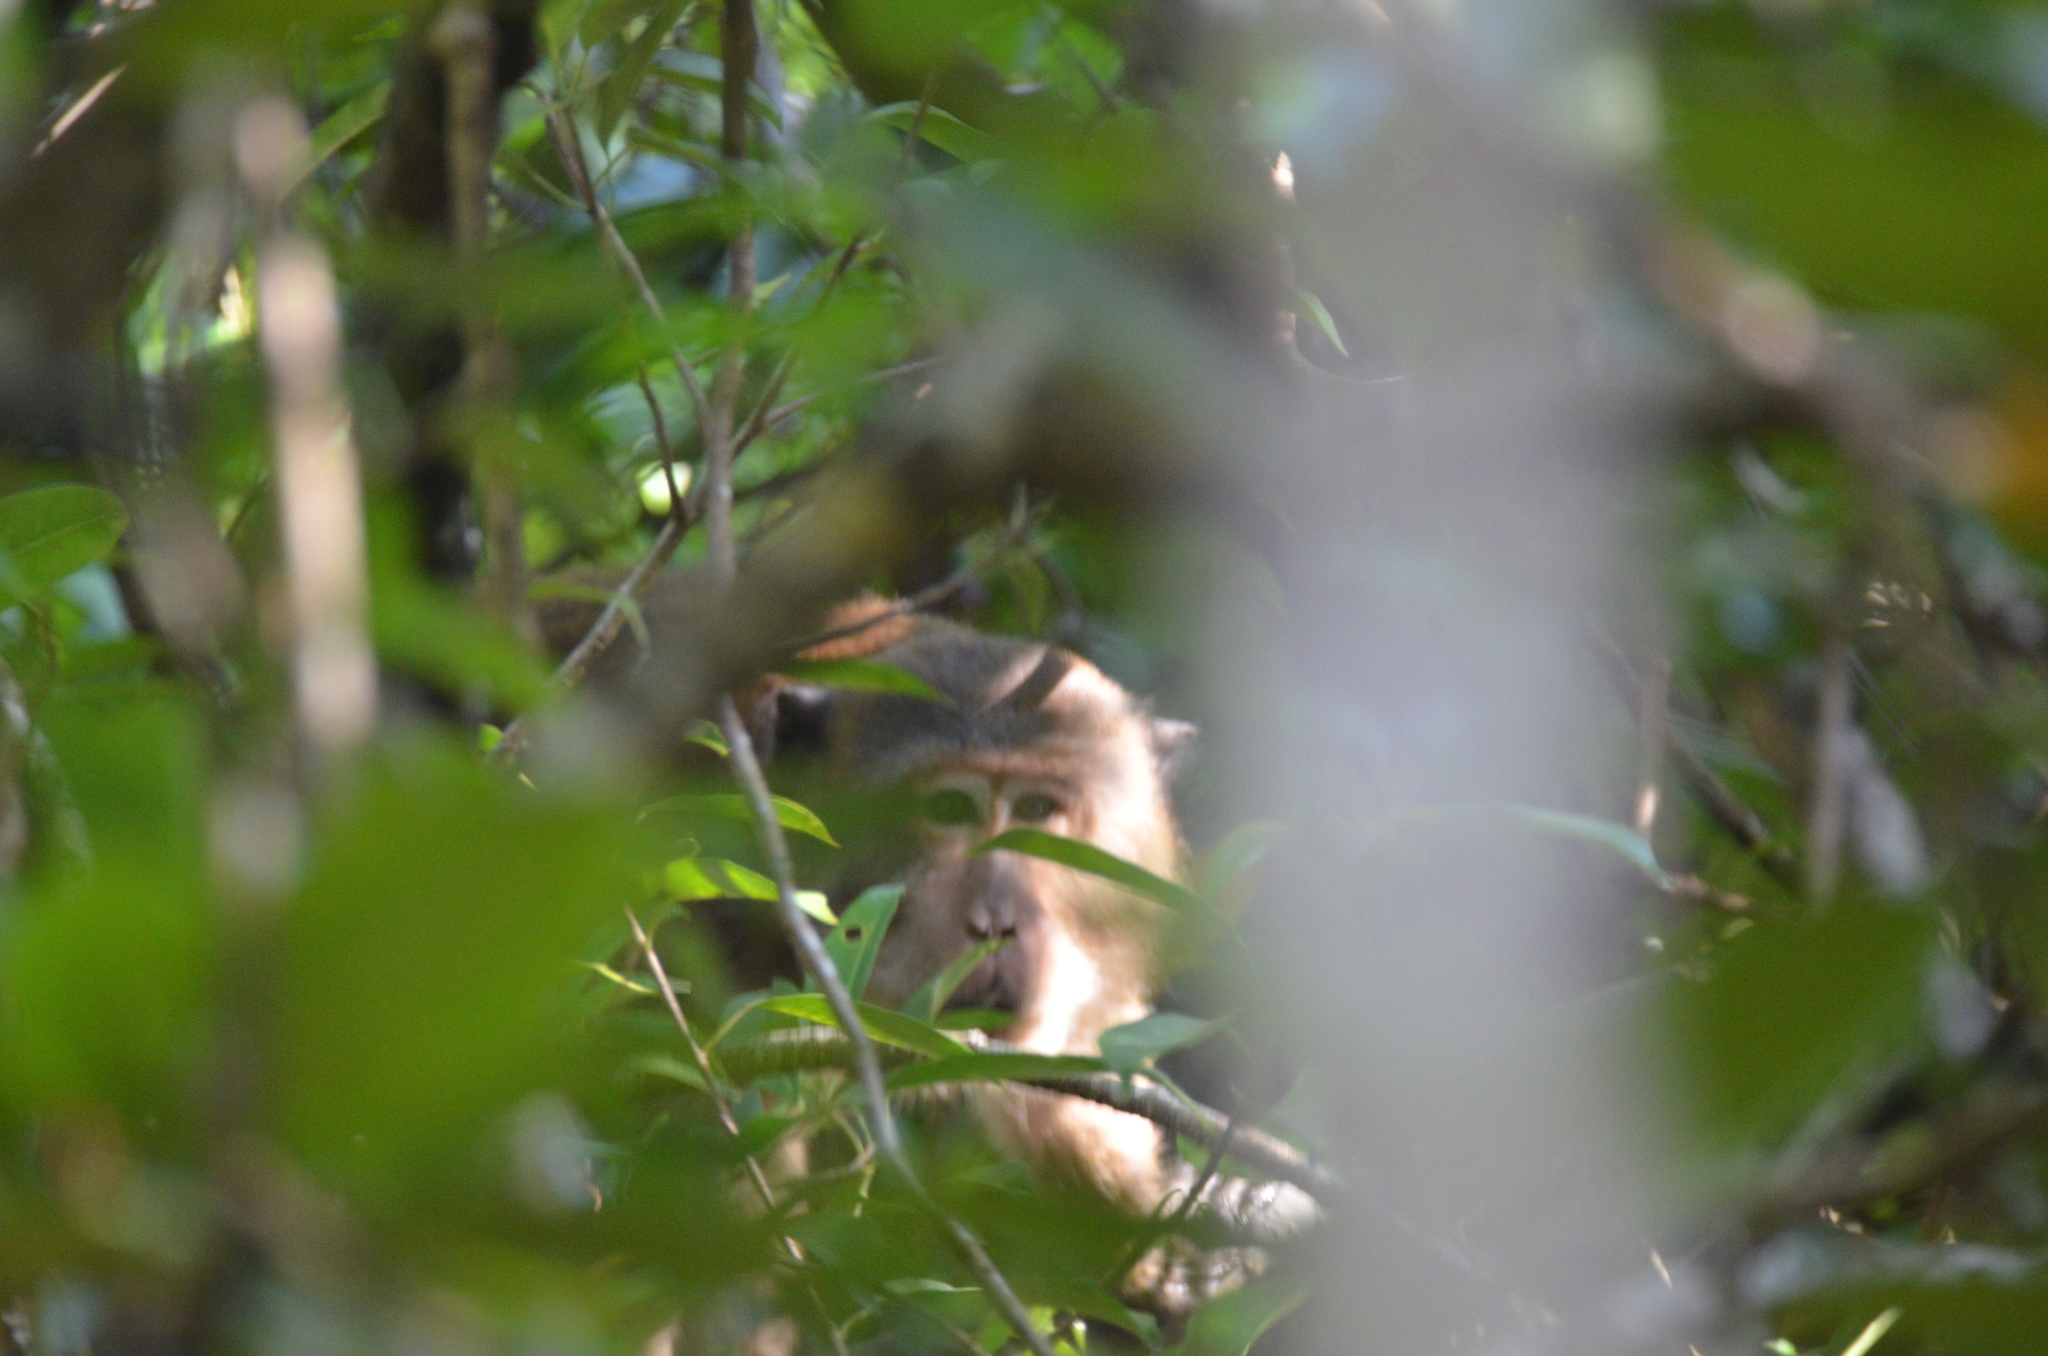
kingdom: Animalia
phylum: Chordata
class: Mammalia
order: Primates
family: Cercopithecidae
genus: Macaca
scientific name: Macaca fascicularis
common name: Crab-eating macaque
